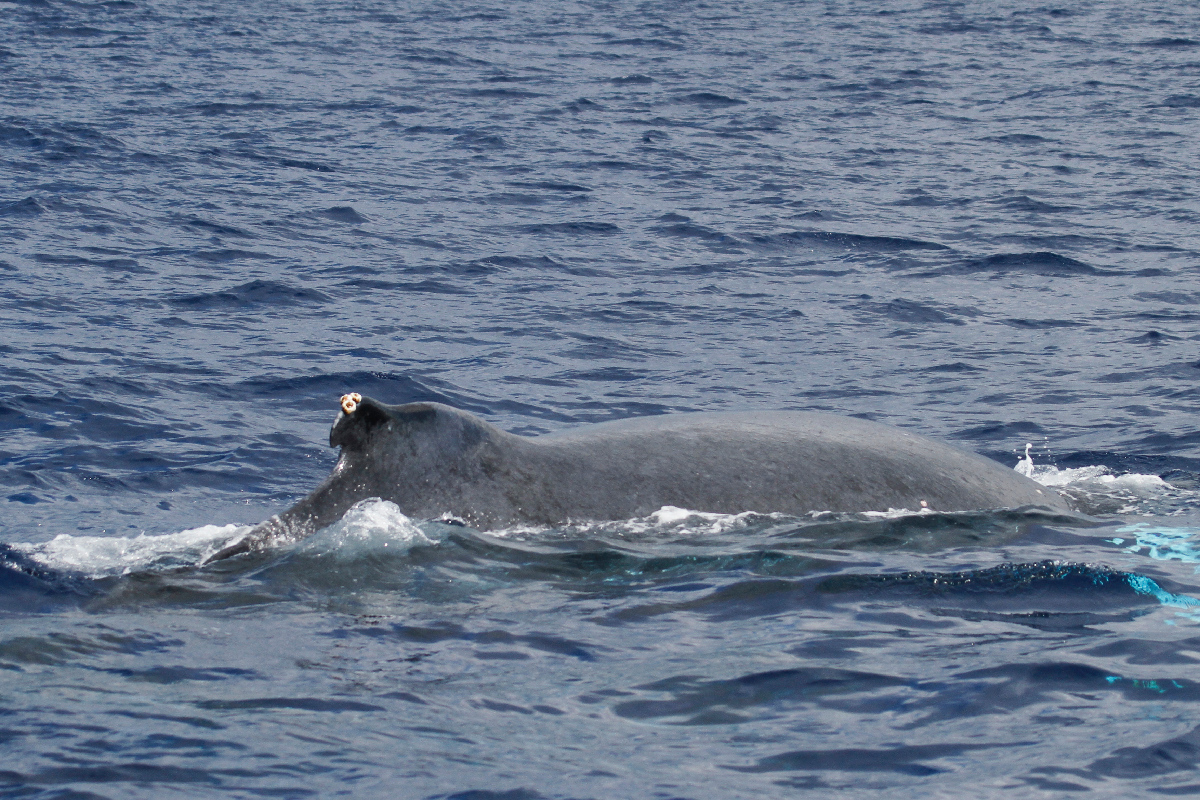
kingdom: Animalia
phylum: Chordata
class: Mammalia
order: Cetacea
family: Balaenopteridae
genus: Megaptera
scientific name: Megaptera novaeangliae
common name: Humpback whale
